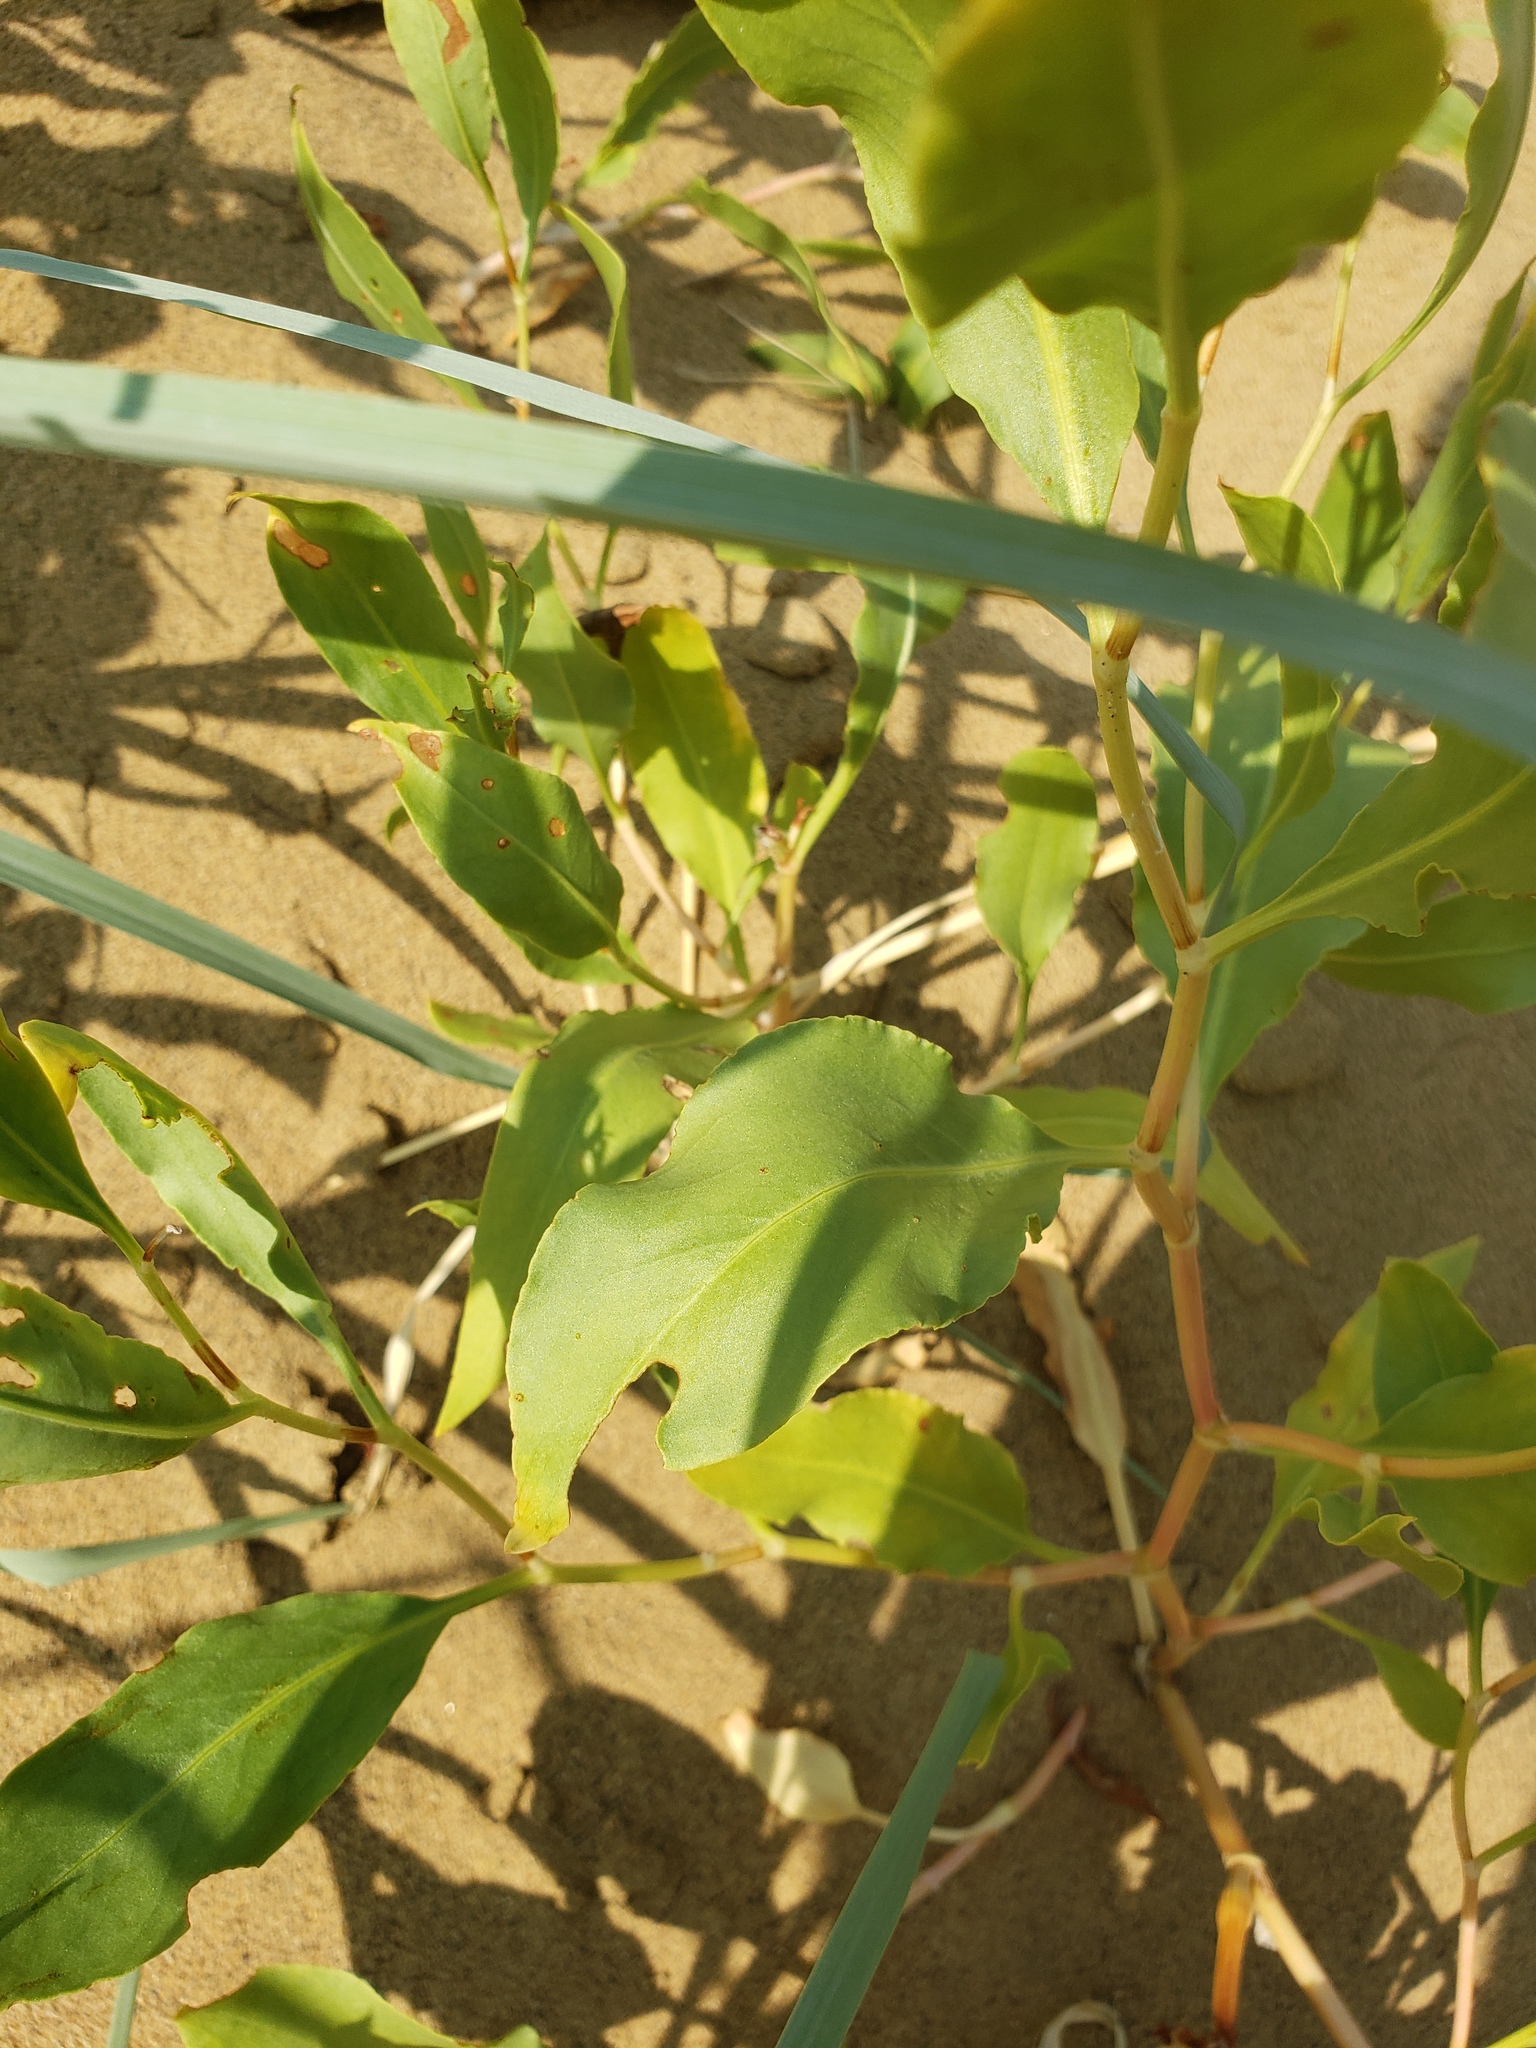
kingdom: Plantae
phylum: Tracheophyta
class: Magnoliopsida
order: Caryophyllales
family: Polygonaceae
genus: Rumex
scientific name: Rumex venosus
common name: Winged dock
